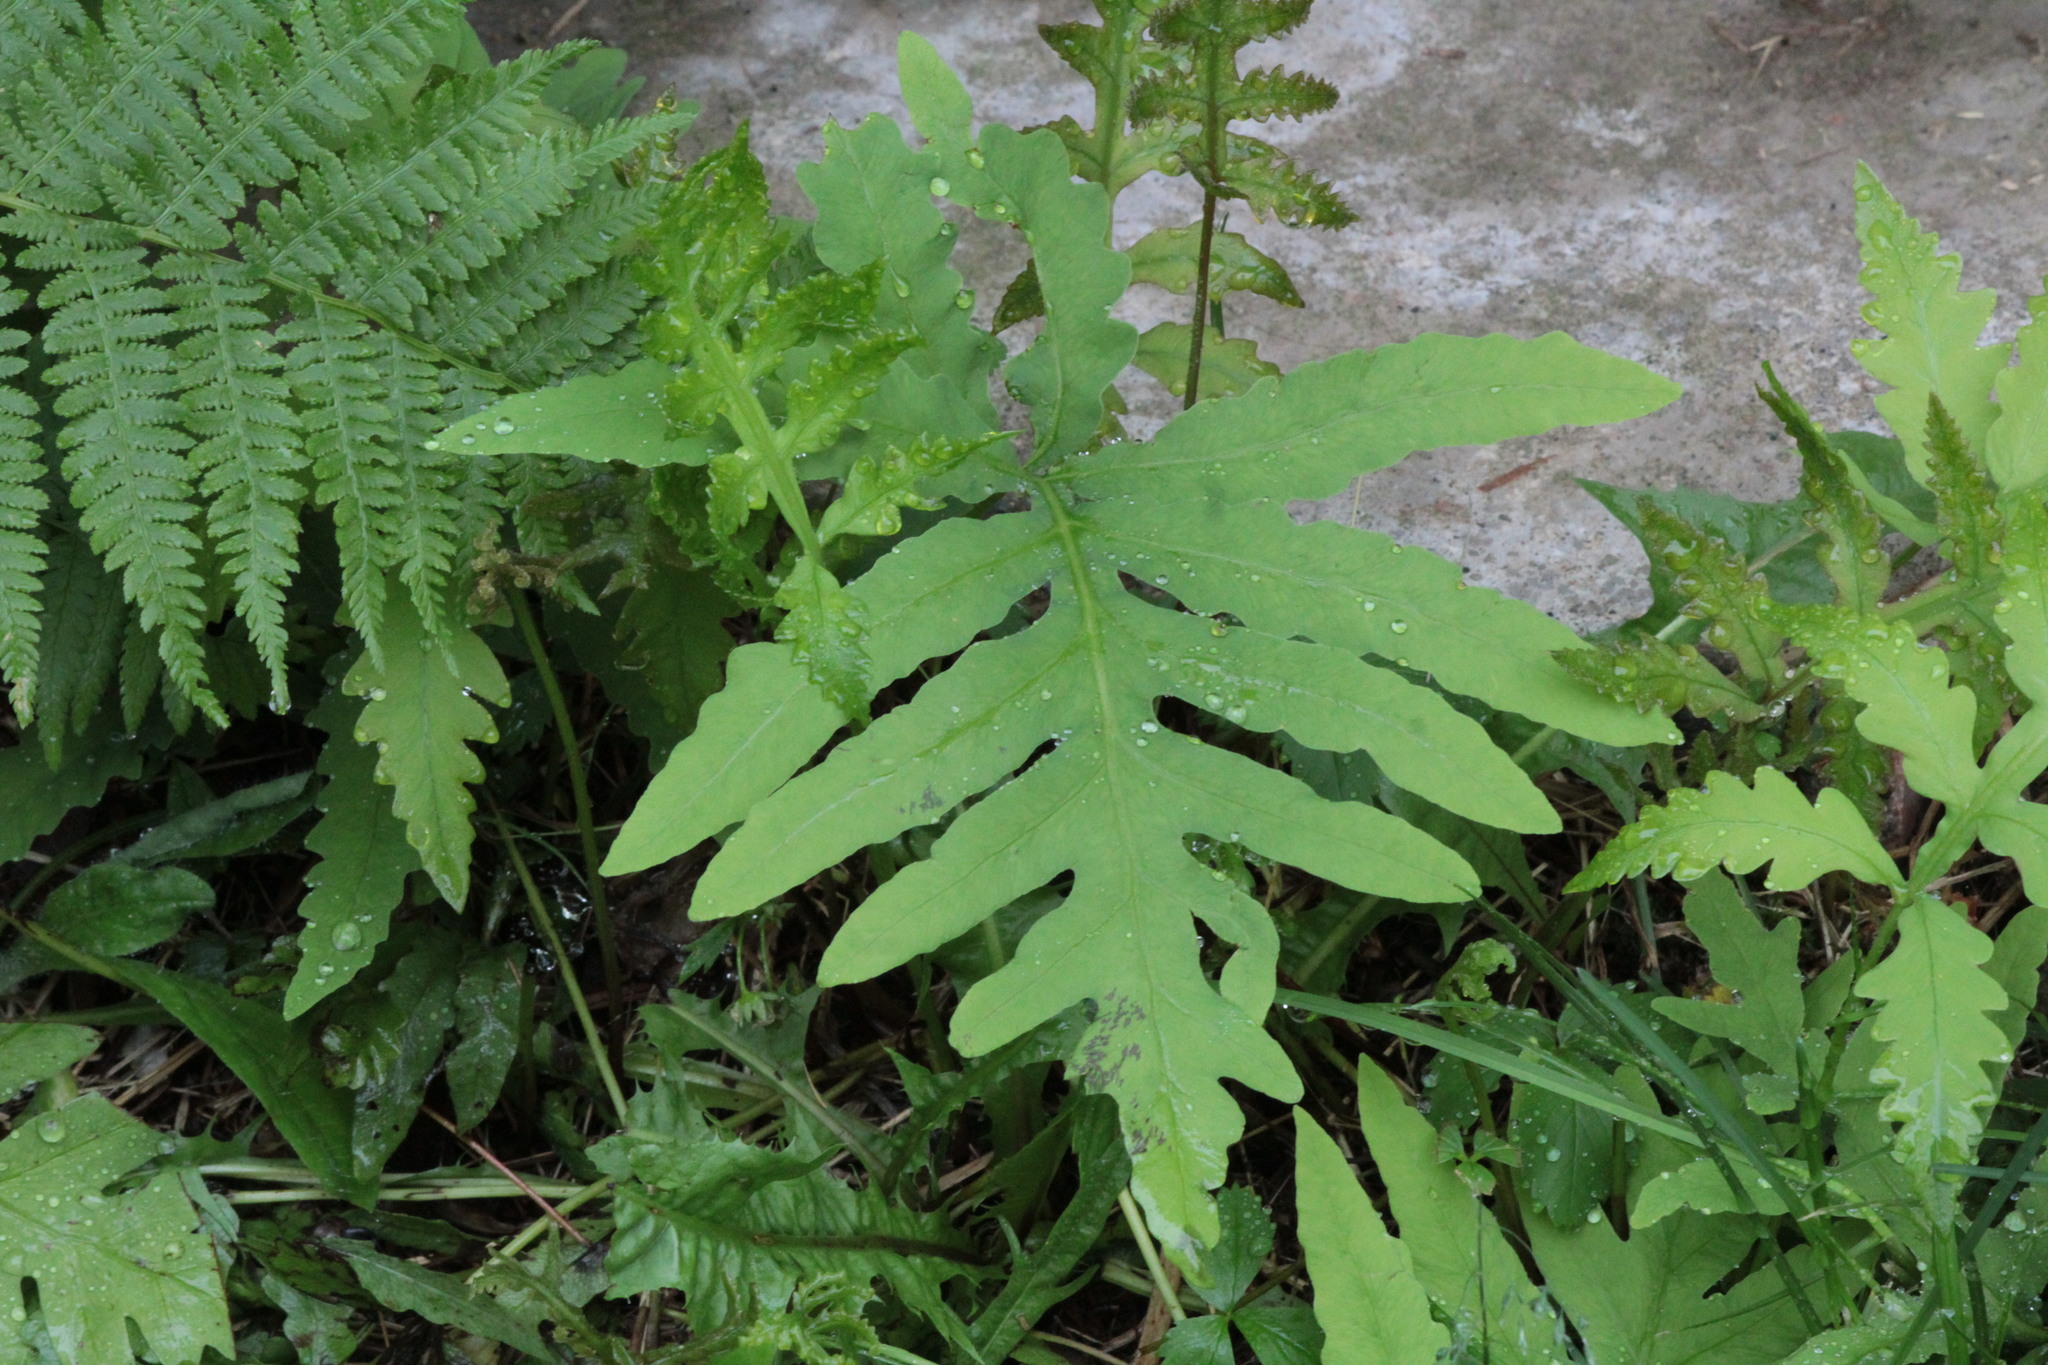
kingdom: Plantae
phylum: Tracheophyta
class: Polypodiopsida
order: Polypodiales
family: Onocleaceae
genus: Onoclea
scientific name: Onoclea sensibilis
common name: Sensitive fern
